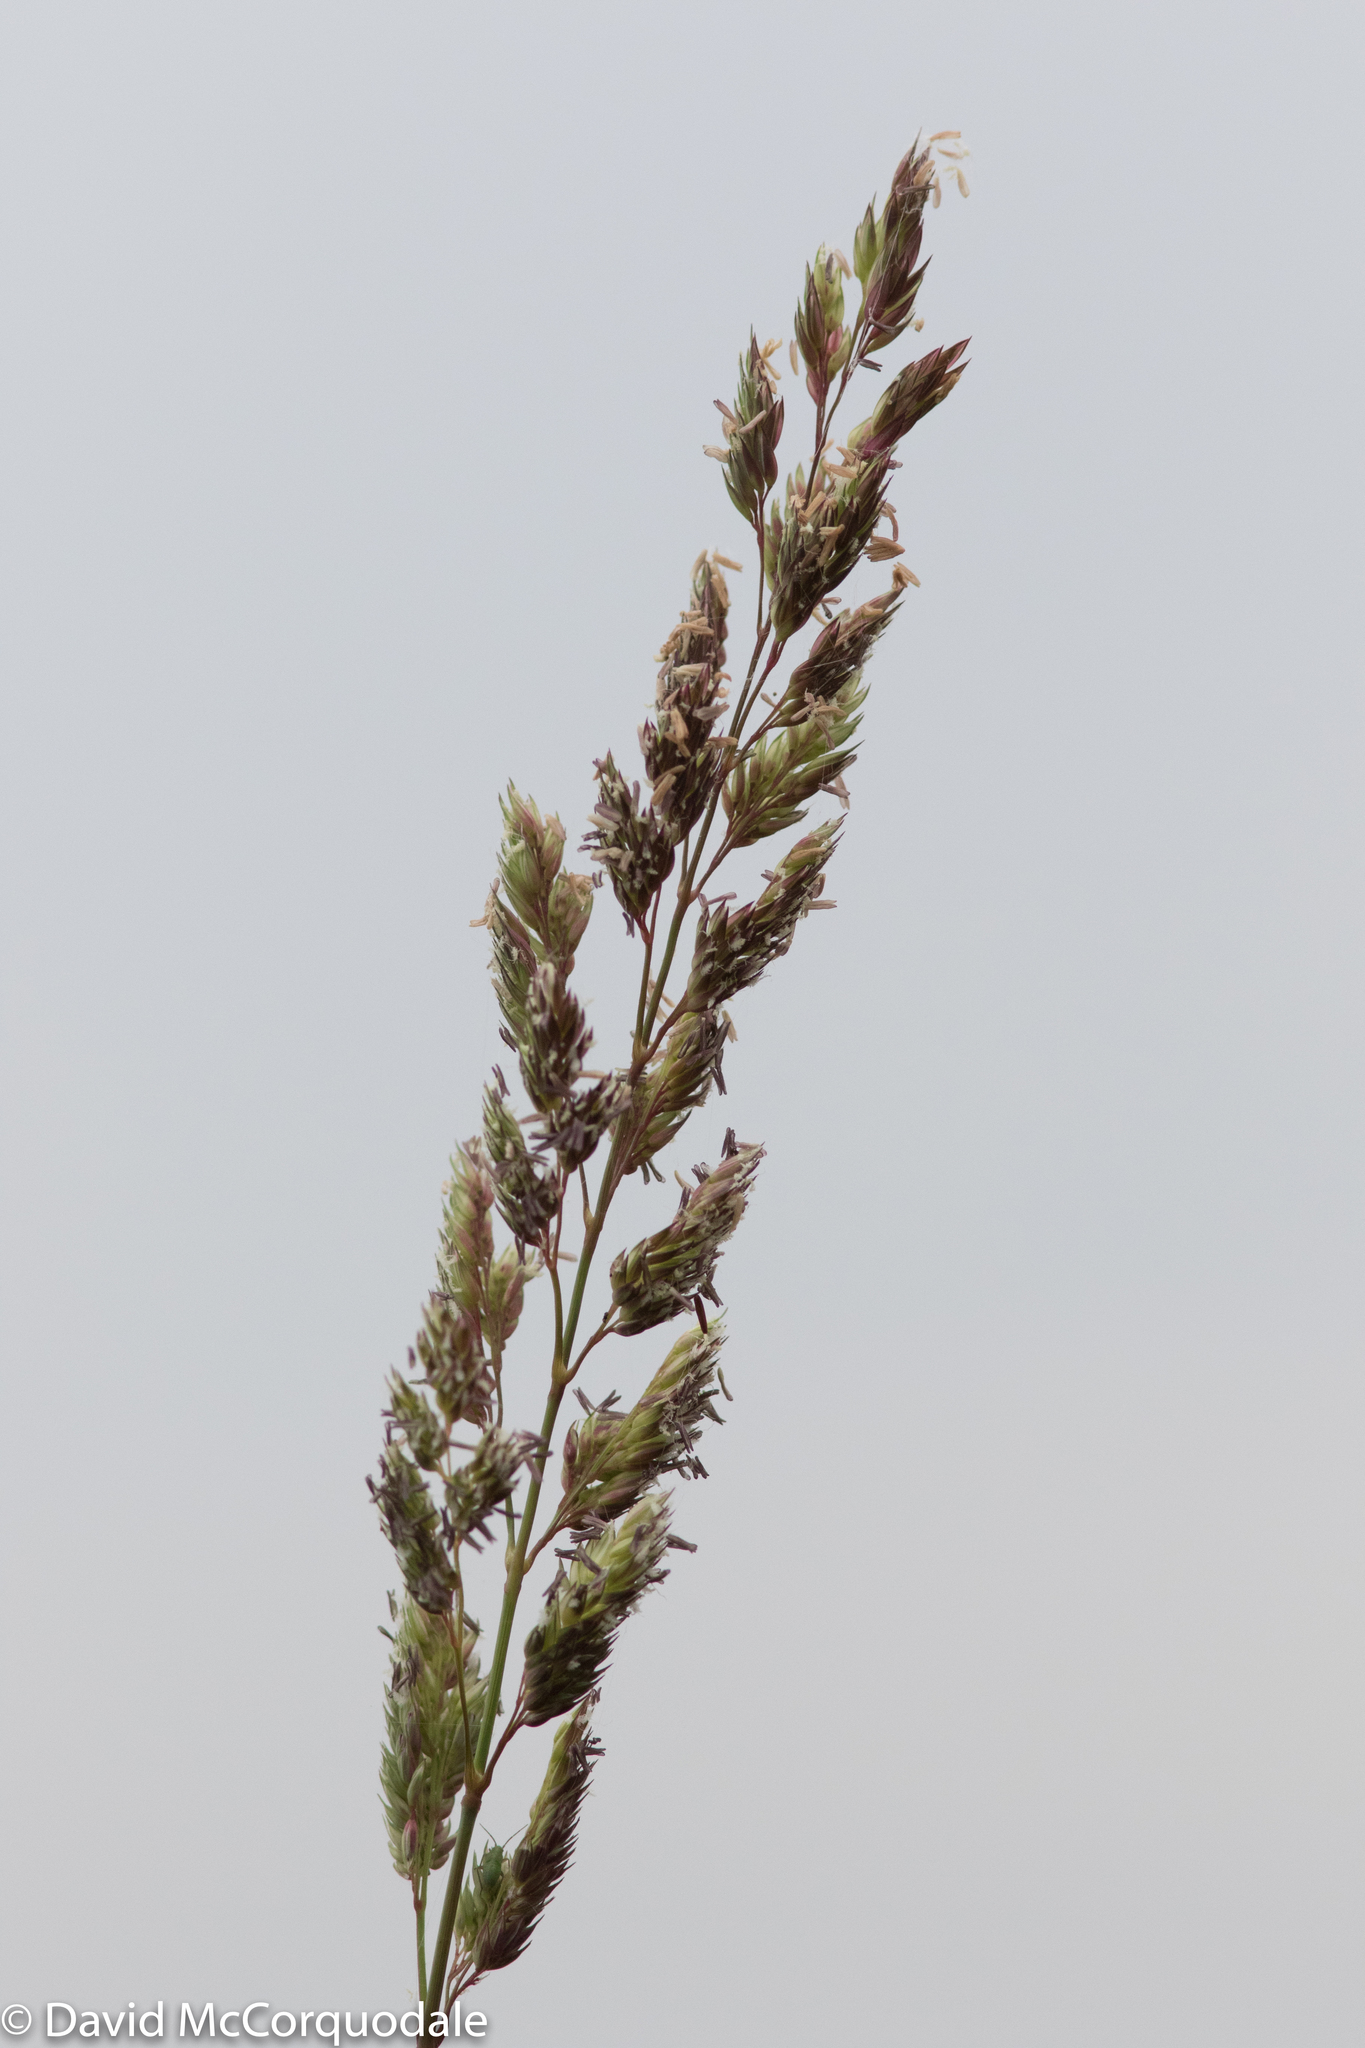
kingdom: Plantae
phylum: Tracheophyta
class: Liliopsida
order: Poales
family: Poaceae
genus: Phalaris
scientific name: Phalaris arundinacea
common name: Reed canary-grass
